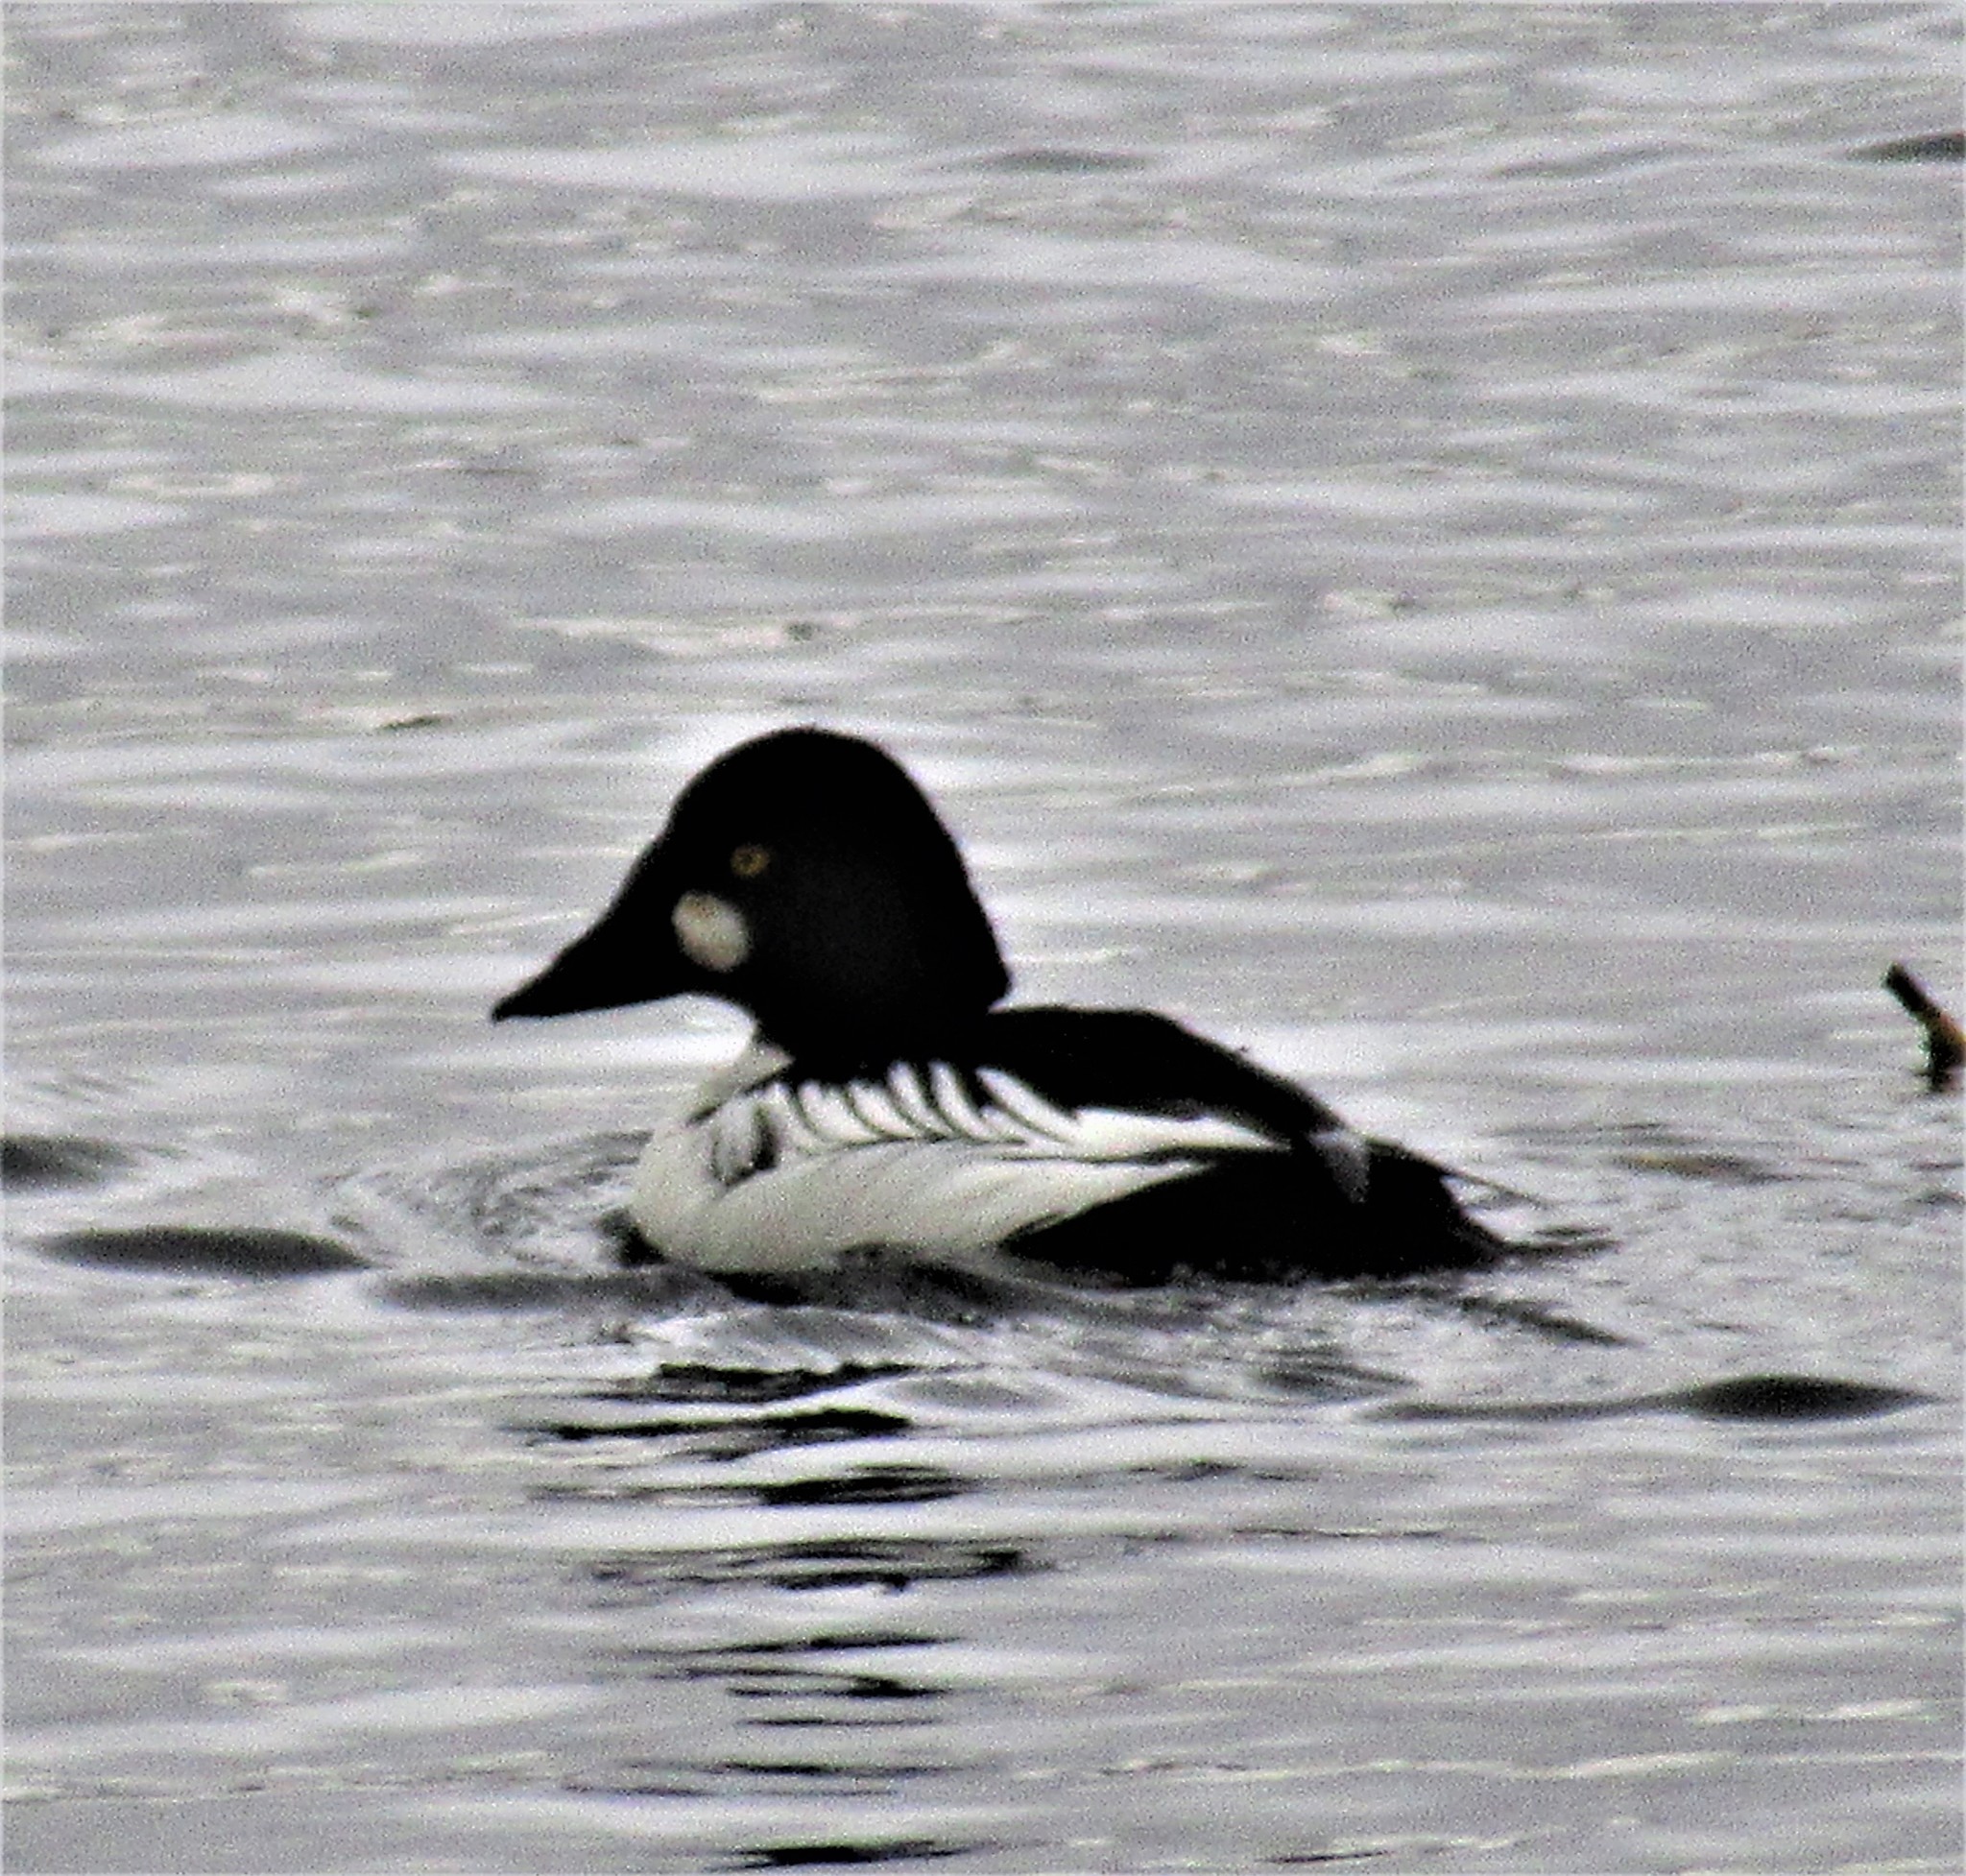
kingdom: Animalia
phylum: Chordata
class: Aves
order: Anseriformes
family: Anatidae
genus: Bucephala
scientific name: Bucephala clangula
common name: Common goldeneye
